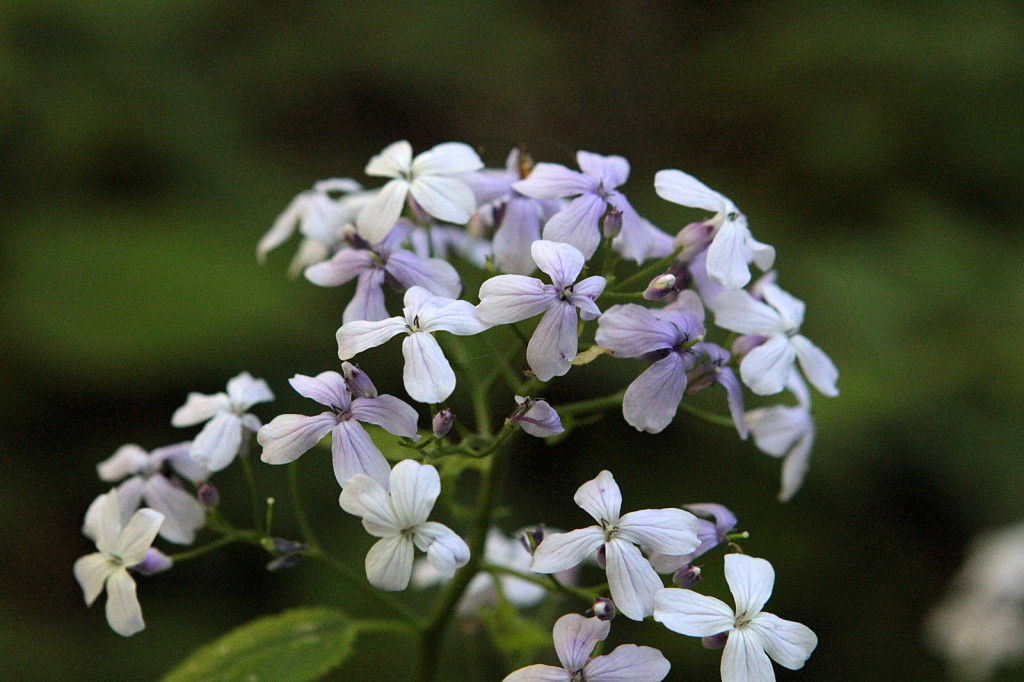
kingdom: Plantae
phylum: Tracheophyta
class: Magnoliopsida
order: Brassicales
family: Brassicaceae
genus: Lunaria
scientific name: Lunaria rediviva
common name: Perennial honesty
